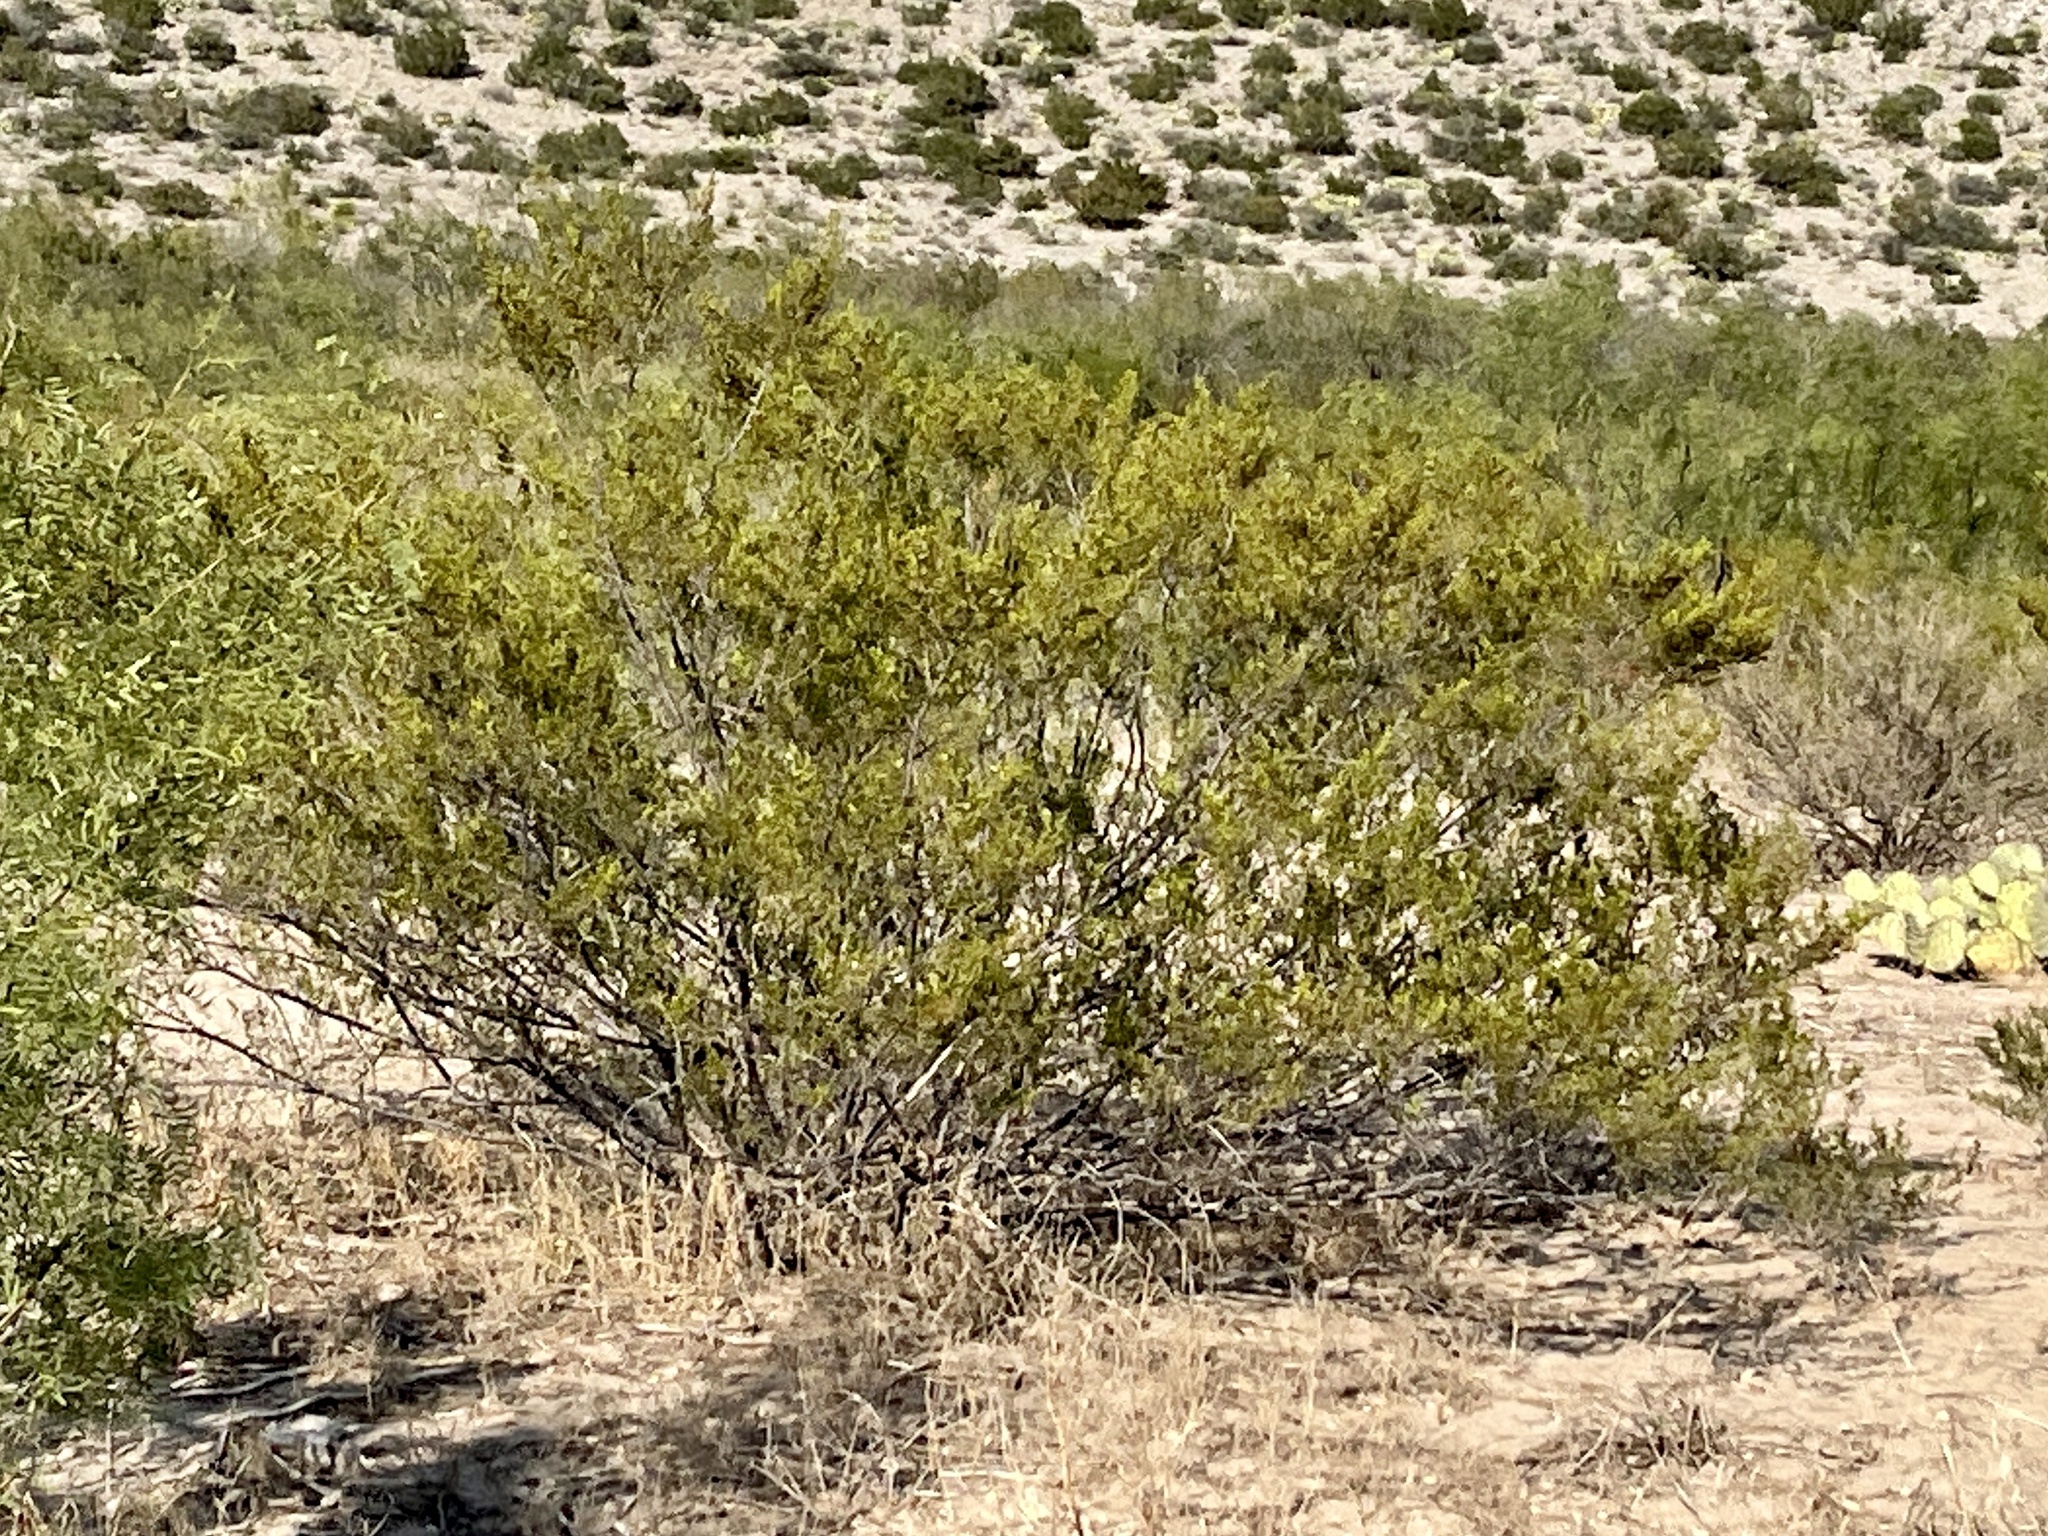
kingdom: Plantae
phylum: Tracheophyta
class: Magnoliopsida
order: Zygophyllales
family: Zygophyllaceae
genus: Larrea
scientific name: Larrea tridentata
